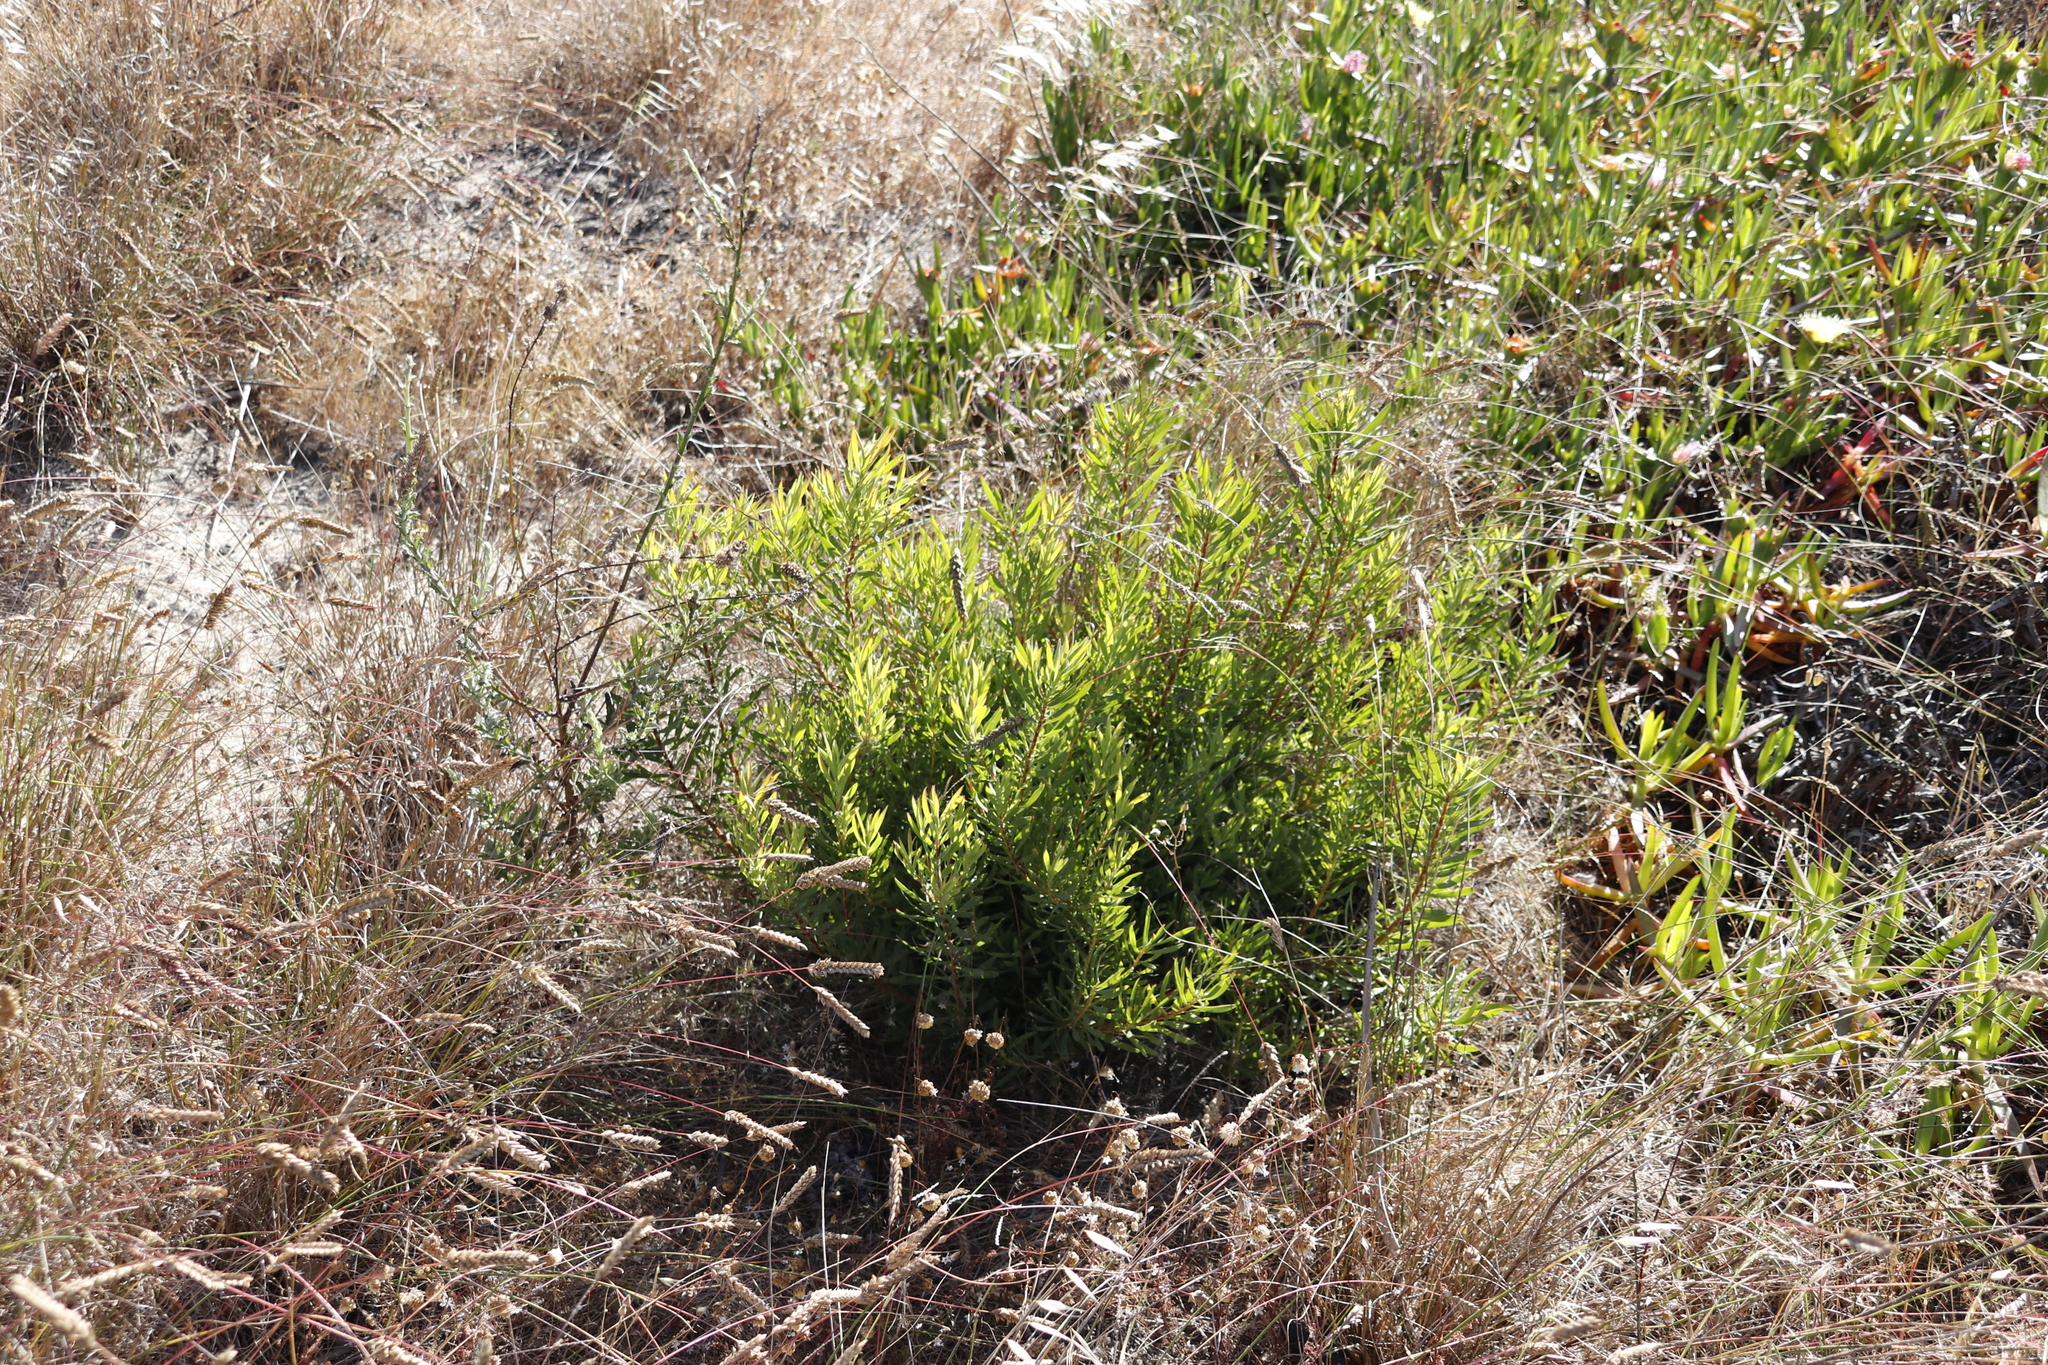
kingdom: Plantae
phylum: Tracheophyta
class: Magnoliopsida
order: Proteales
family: Proteaceae
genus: Leucadendron
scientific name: Leucadendron salignum
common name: Common sunshine conebush
